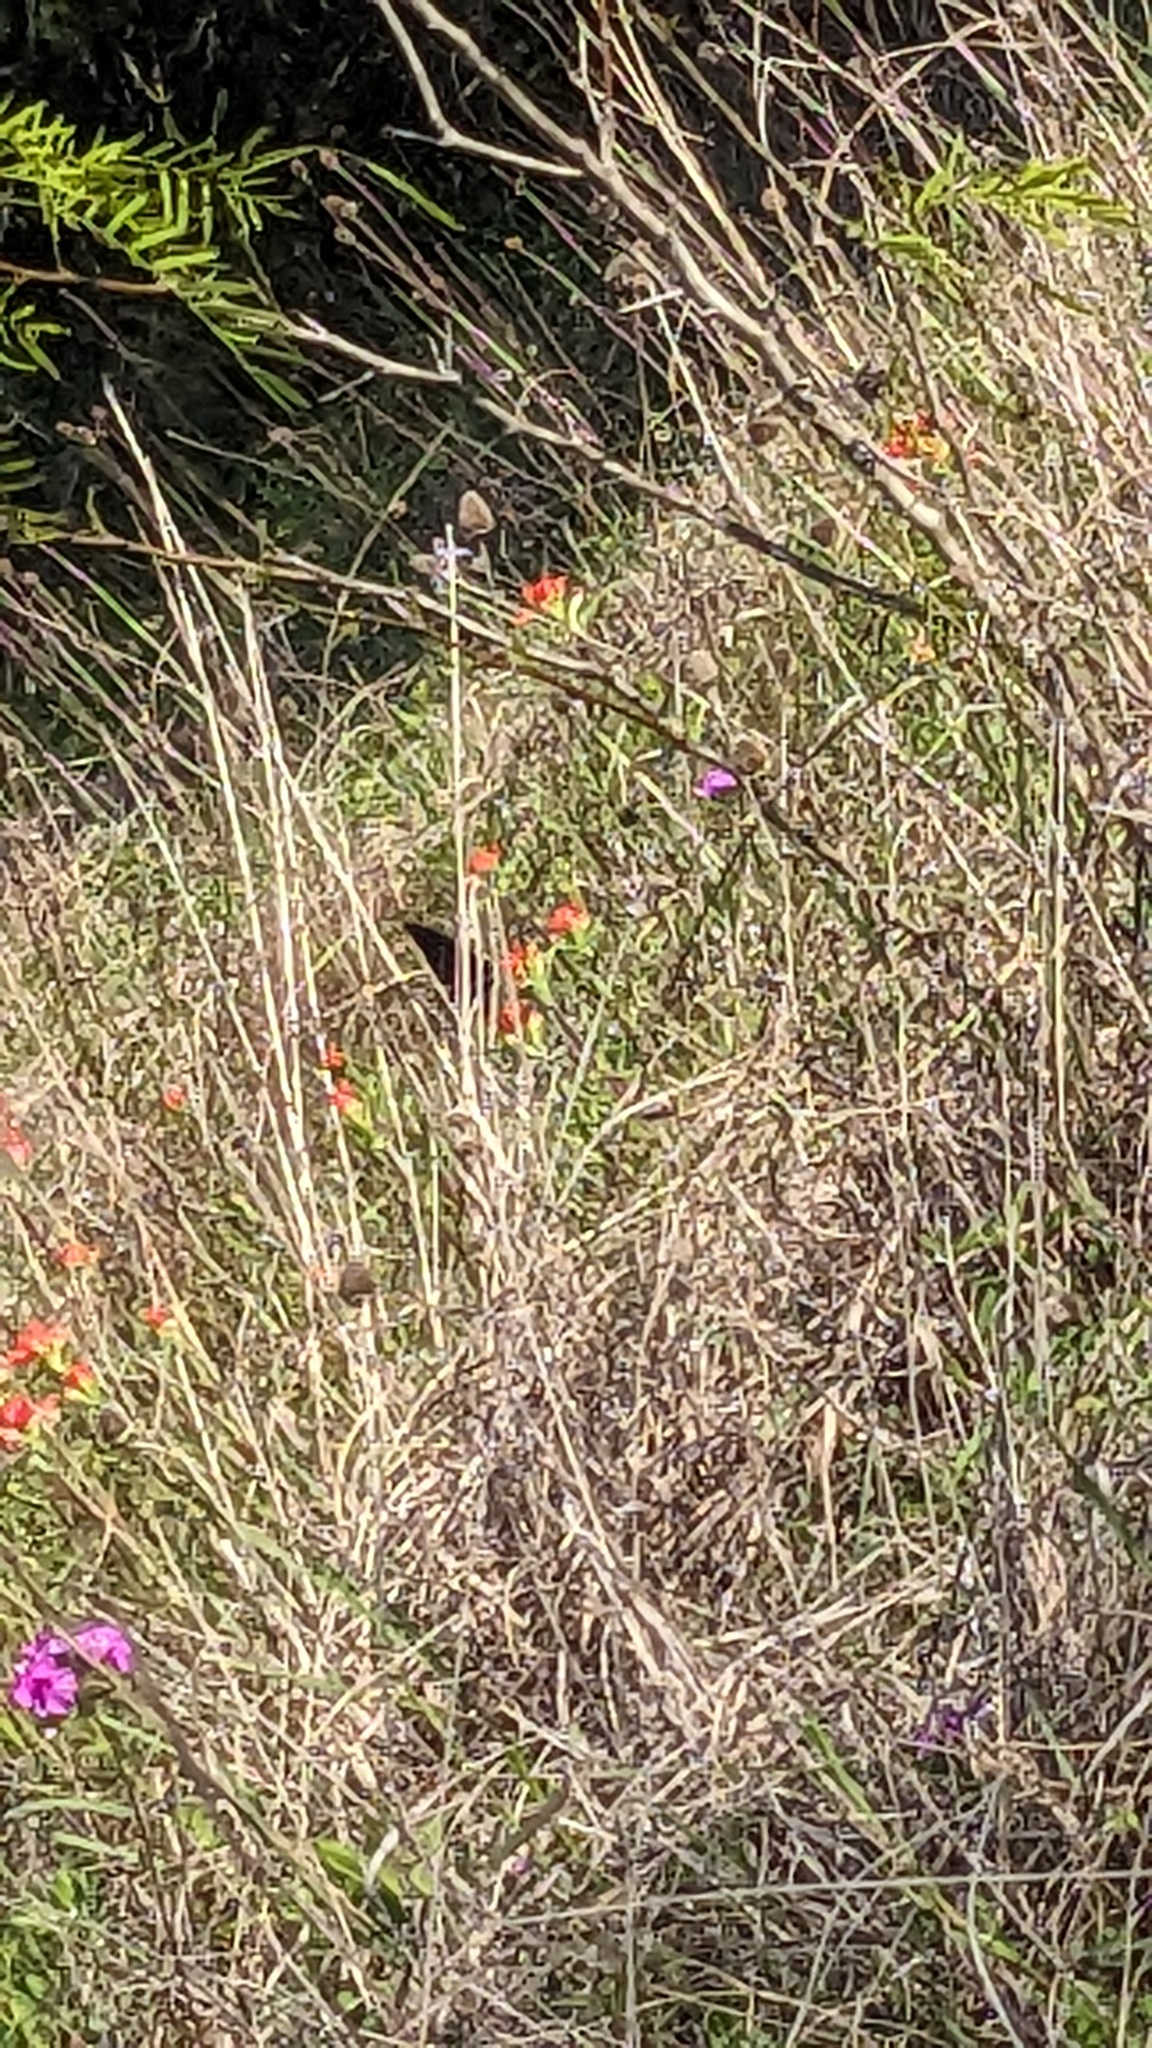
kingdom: Animalia
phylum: Arthropoda
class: Insecta
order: Lepidoptera
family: Papilionidae
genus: Battus
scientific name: Battus philenor
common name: Pipevine swallowtail
